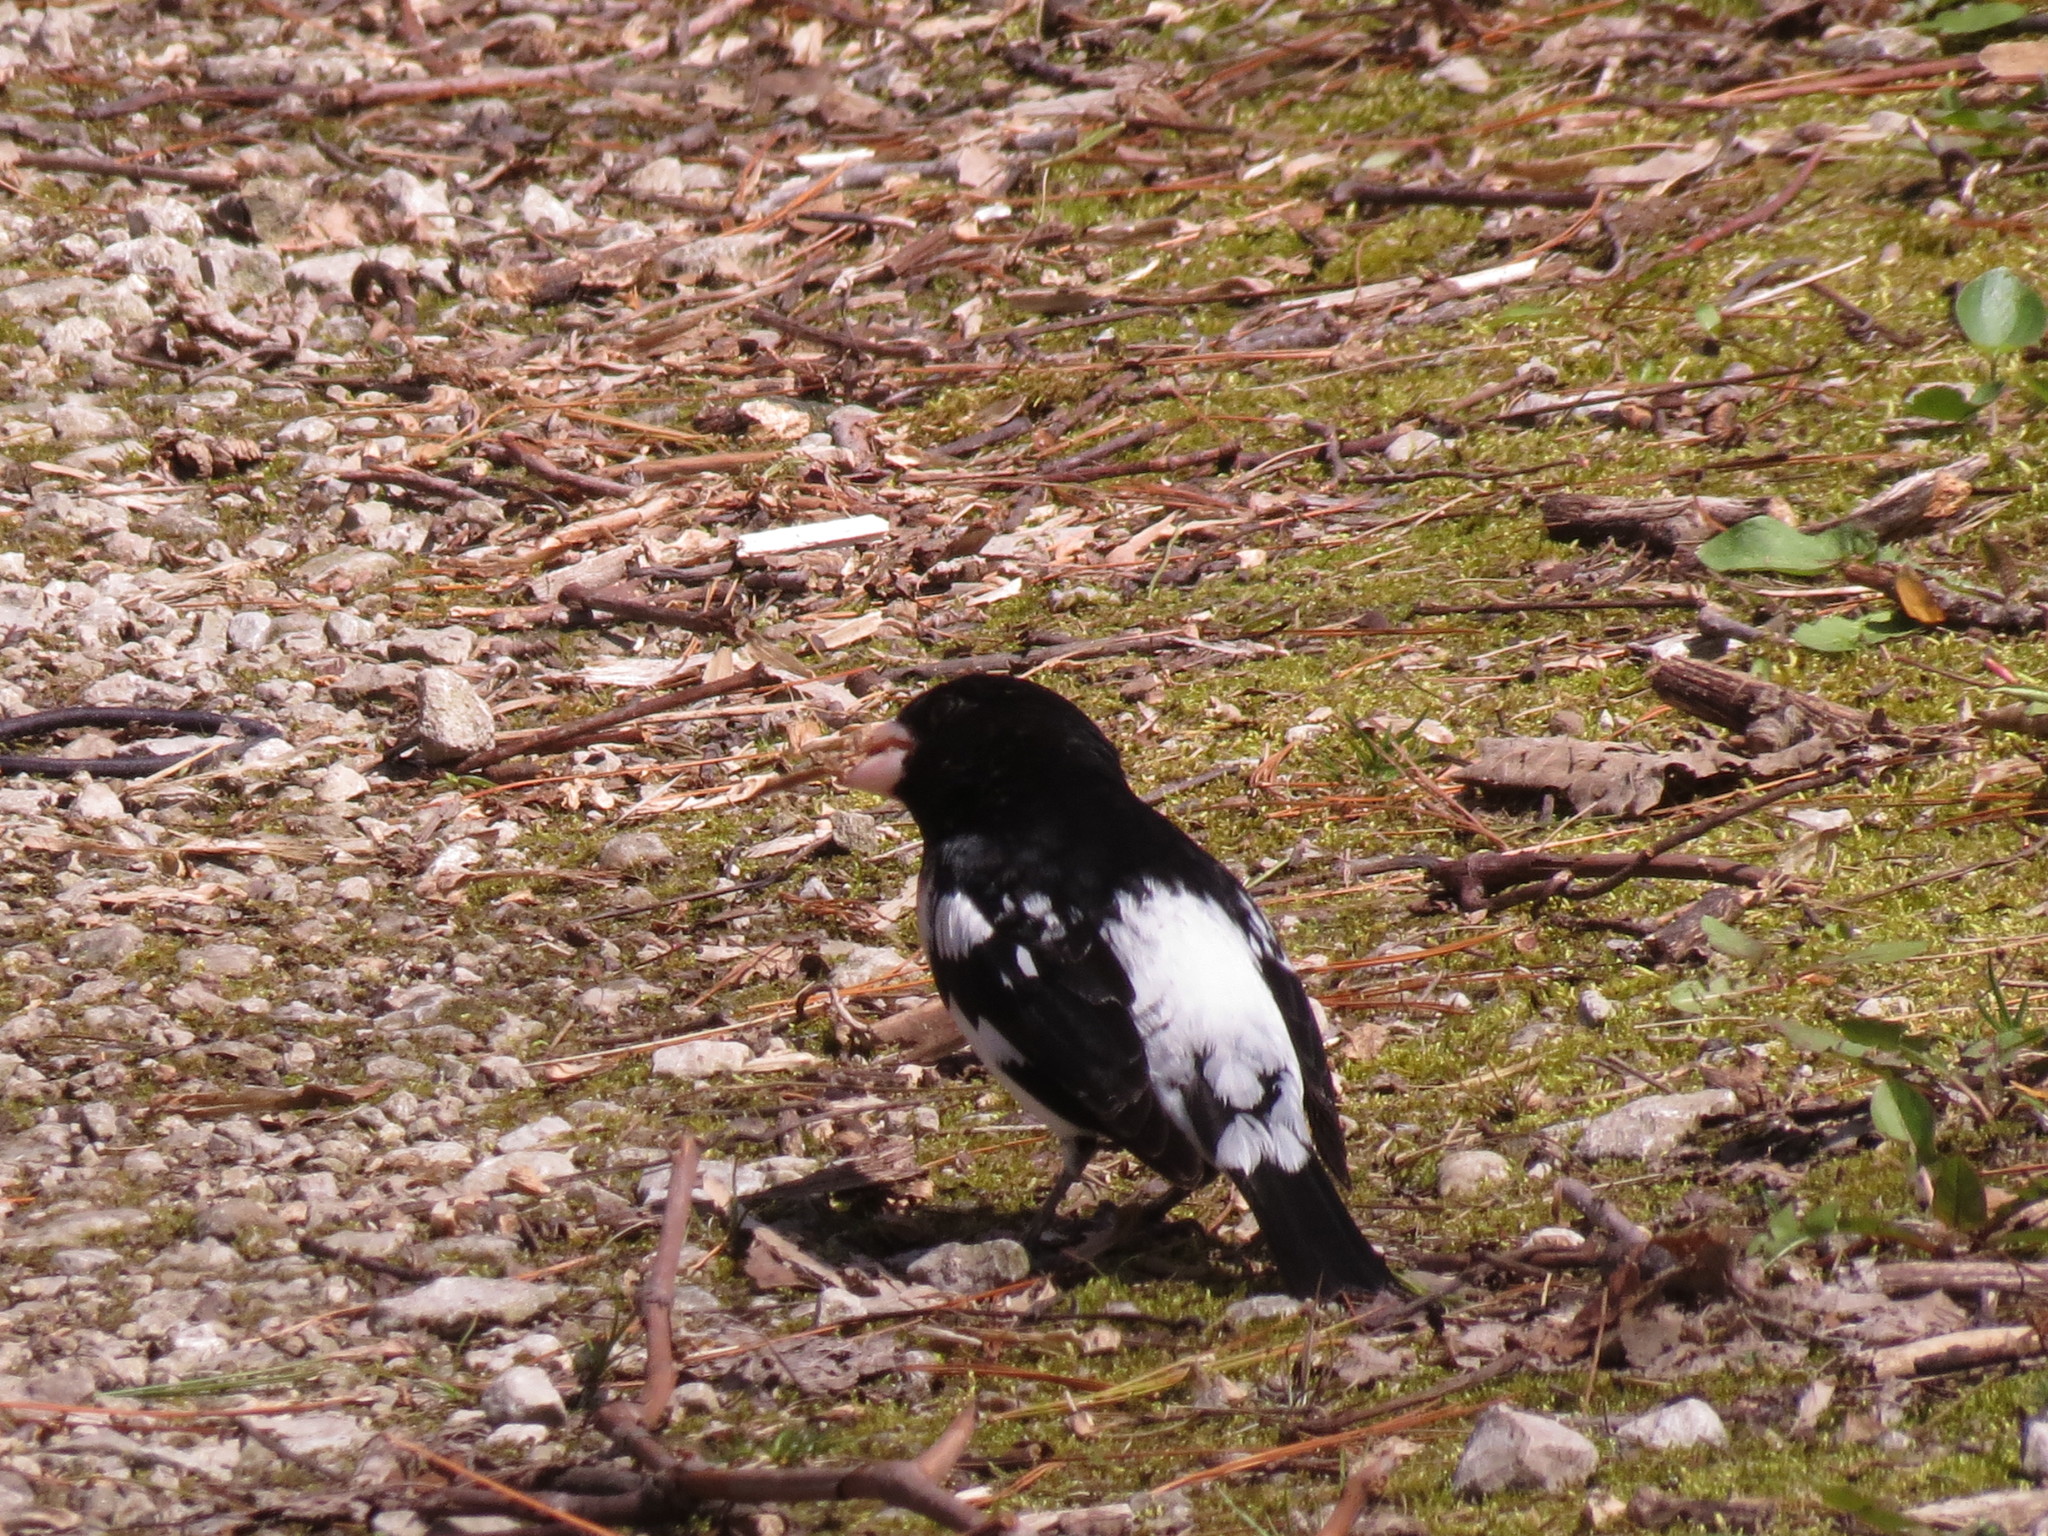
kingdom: Animalia
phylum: Chordata
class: Aves
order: Passeriformes
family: Cardinalidae
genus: Pheucticus
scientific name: Pheucticus ludovicianus
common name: Rose-breasted grosbeak
